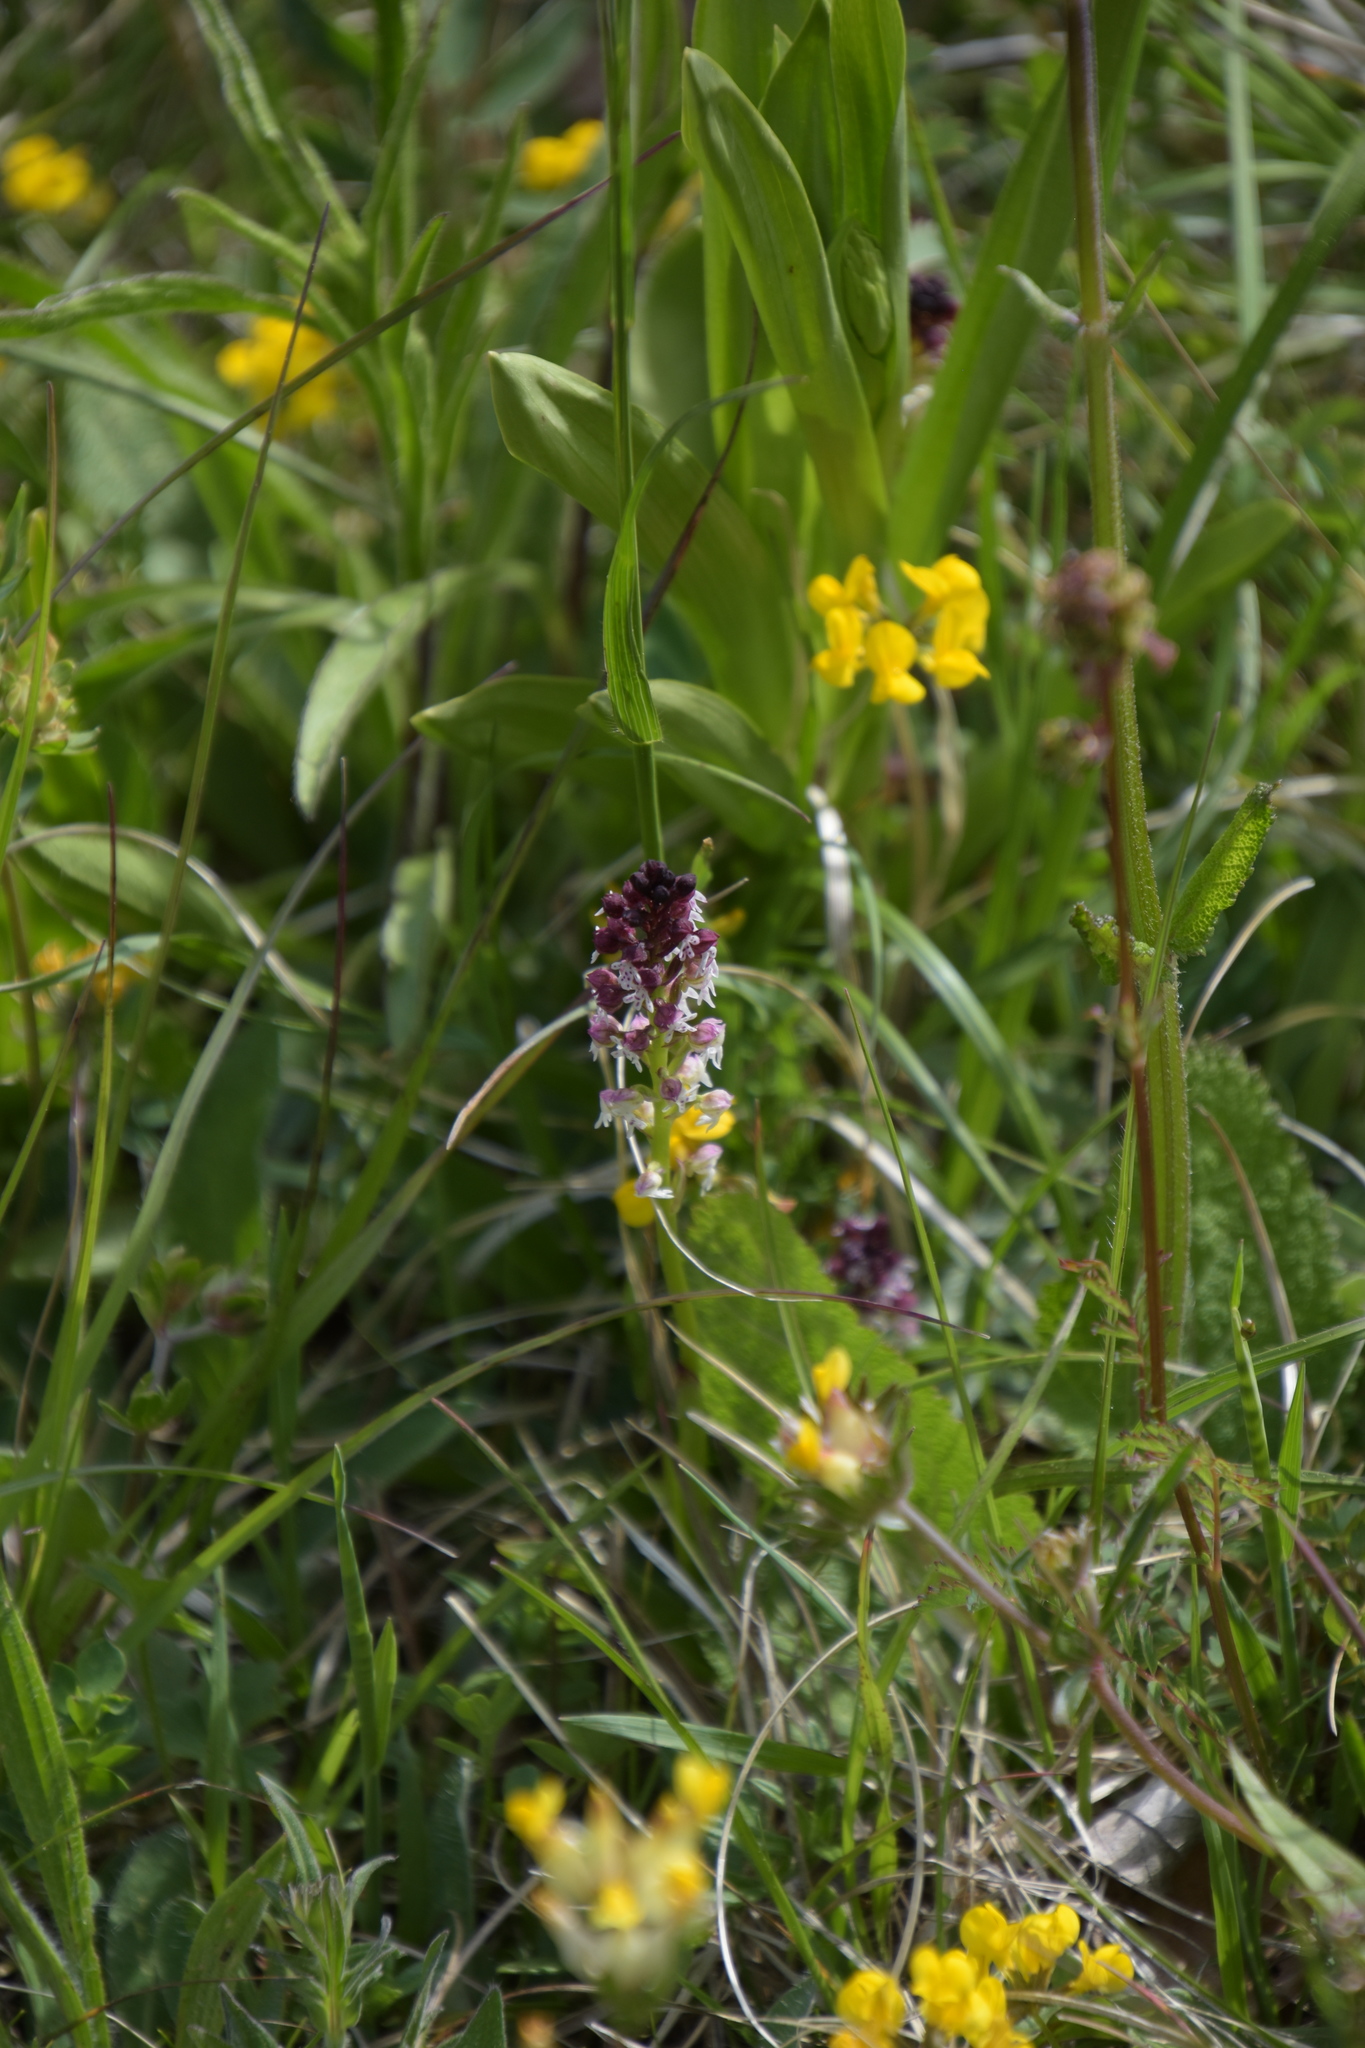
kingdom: Plantae
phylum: Tracheophyta
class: Liliopsida
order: Asparagales
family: Orchidaceae
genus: Neotinea
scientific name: Neotinea ustulata
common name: Burnt orchid
